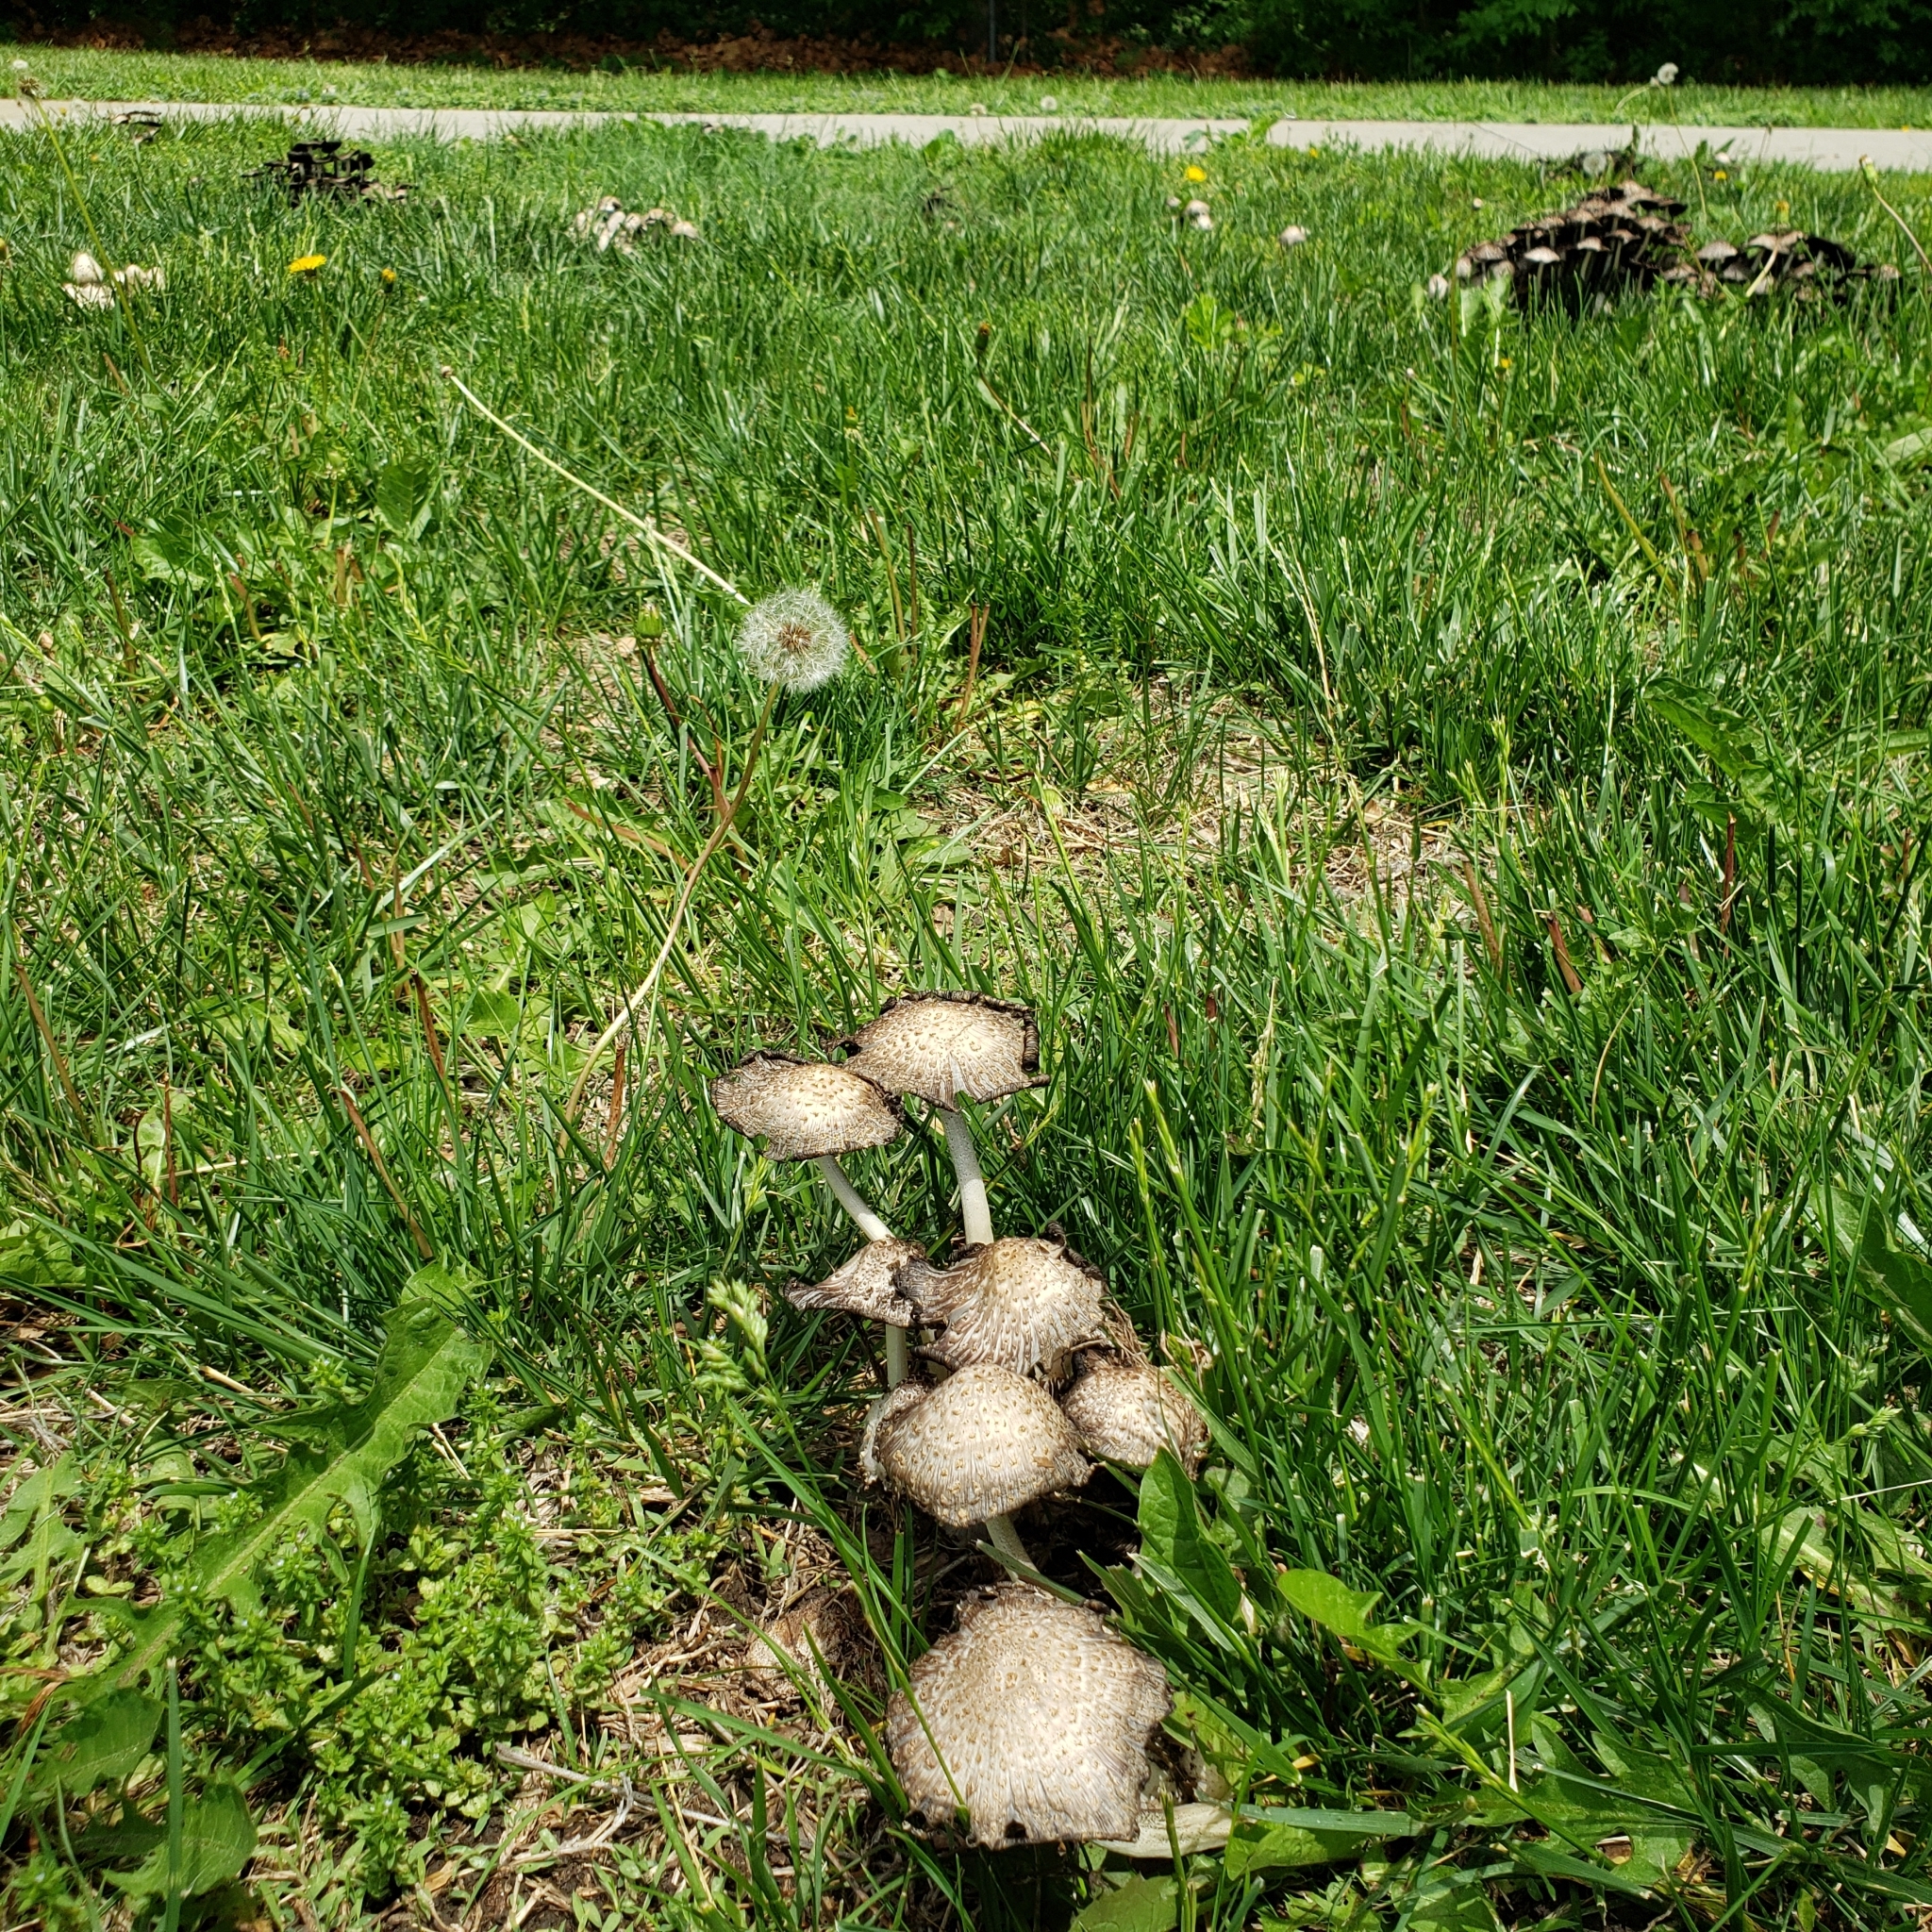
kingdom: Fungi
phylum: Basidiomycota
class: Agaricomycetes
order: Agaricales
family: Psathyrellaceae
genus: Coprinopsis
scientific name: Coprinopsis variegata
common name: Scaly ink cap
